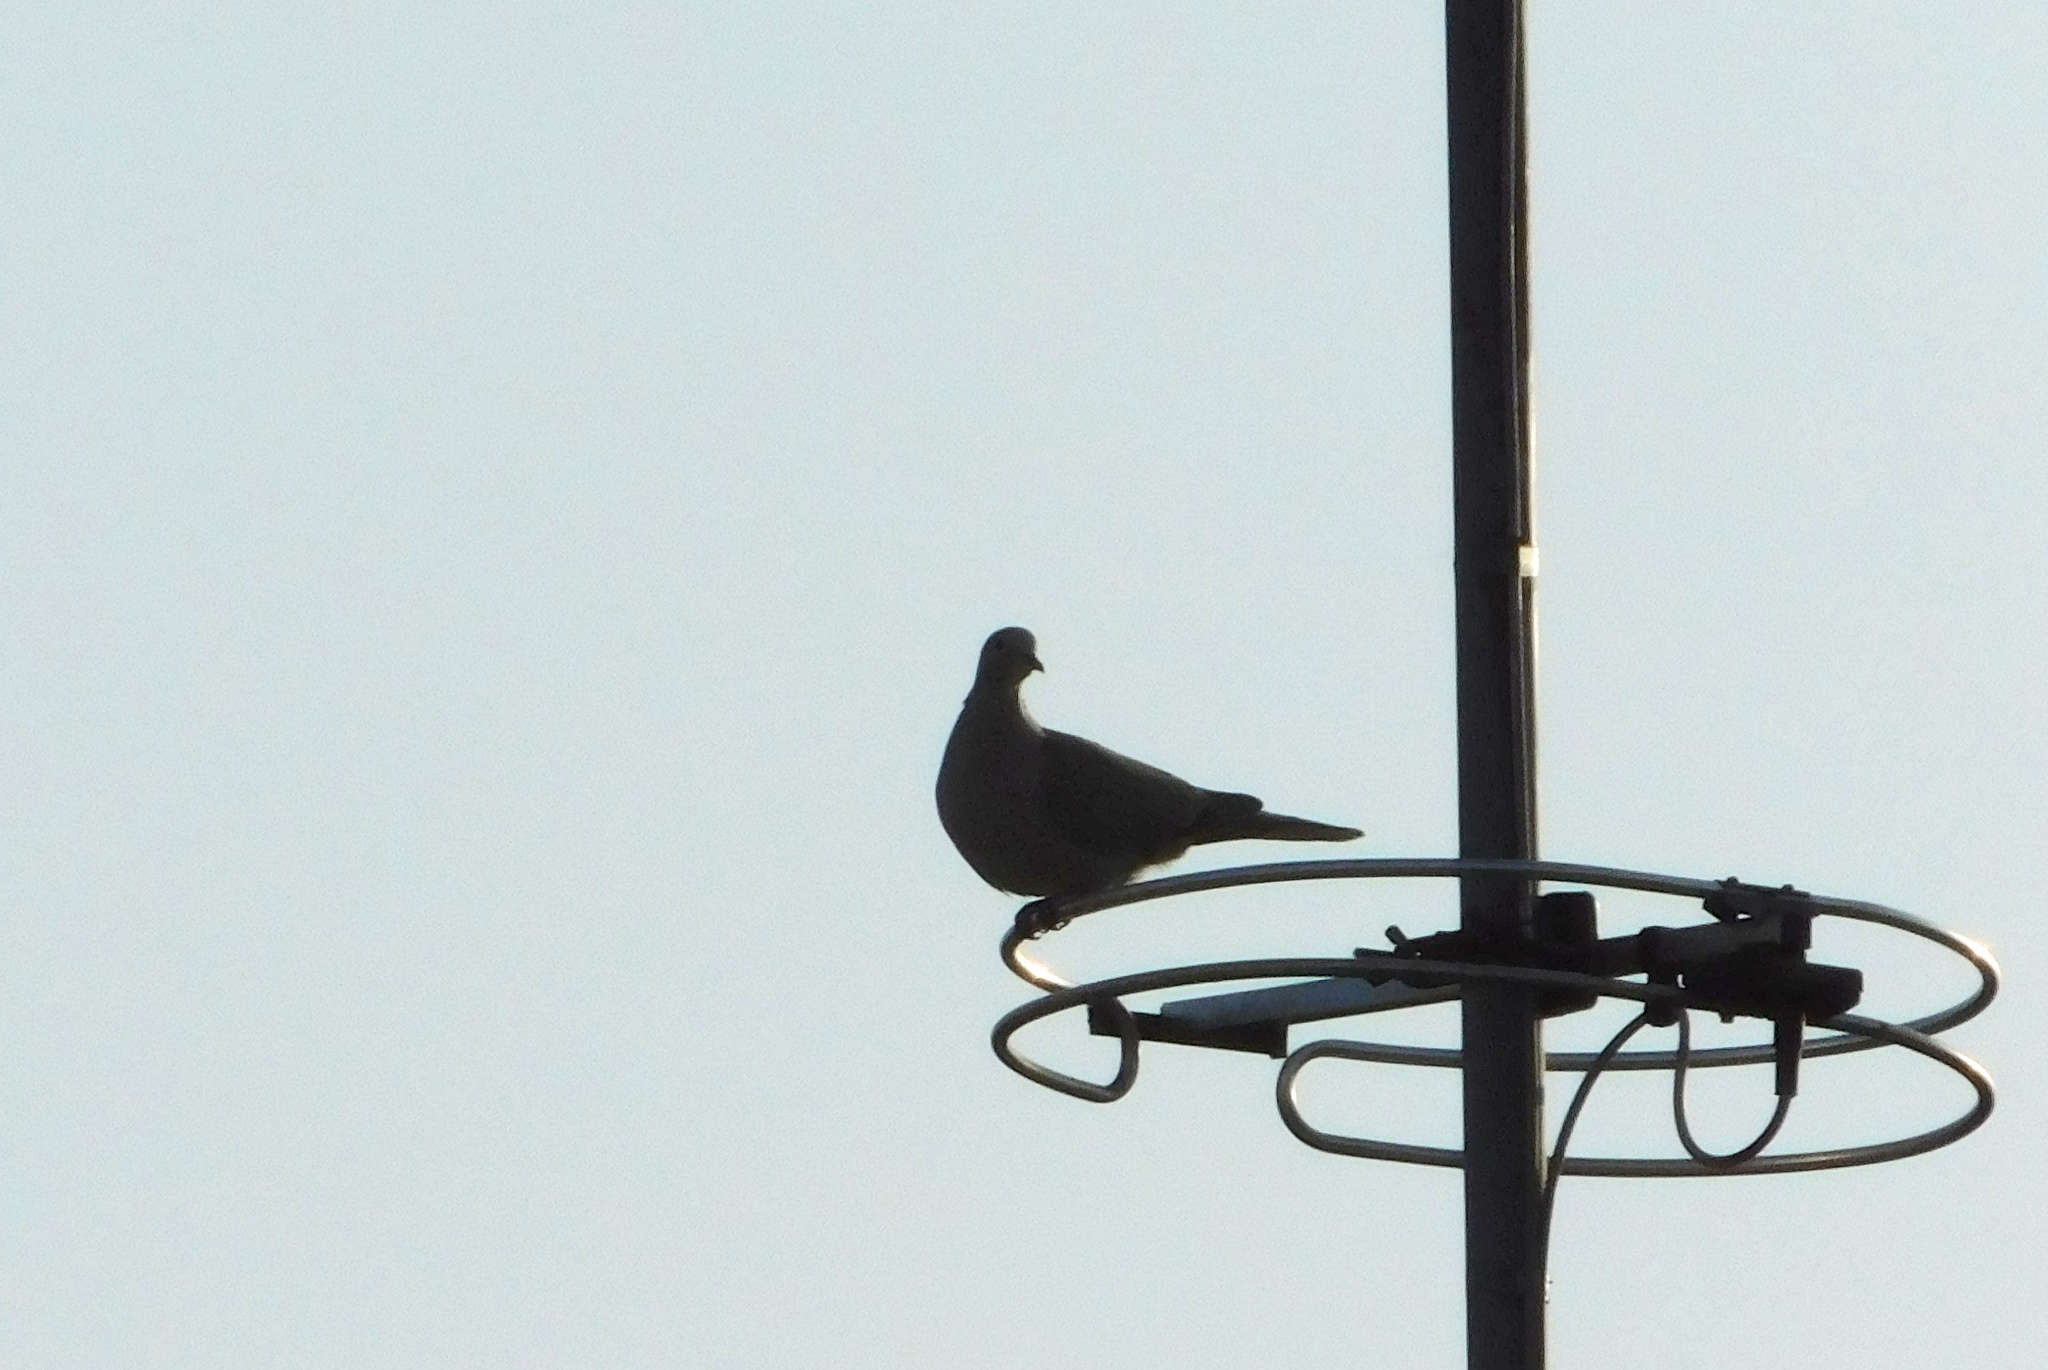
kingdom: Animalia
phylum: Chordata
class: Aves
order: Columbiformes
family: Columbidae
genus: Streptopelia
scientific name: Streptopelia decaocto
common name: Eurasian collared dove
